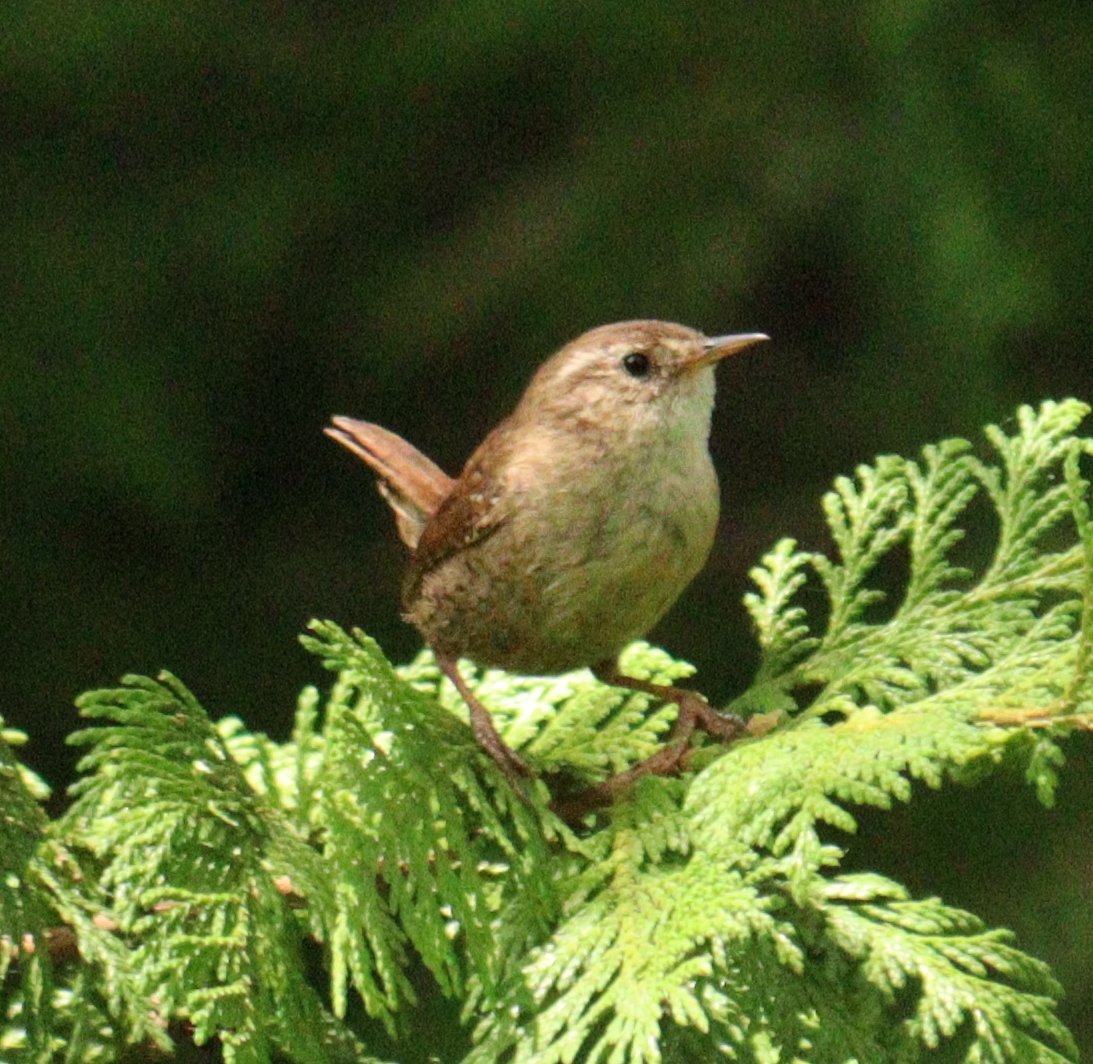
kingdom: Animalia
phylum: Chordata
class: Aves
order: Passeriformes
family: Troglodytidae
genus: Troglodytes
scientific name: Troglodytes troglodytes
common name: Eurasian wren
